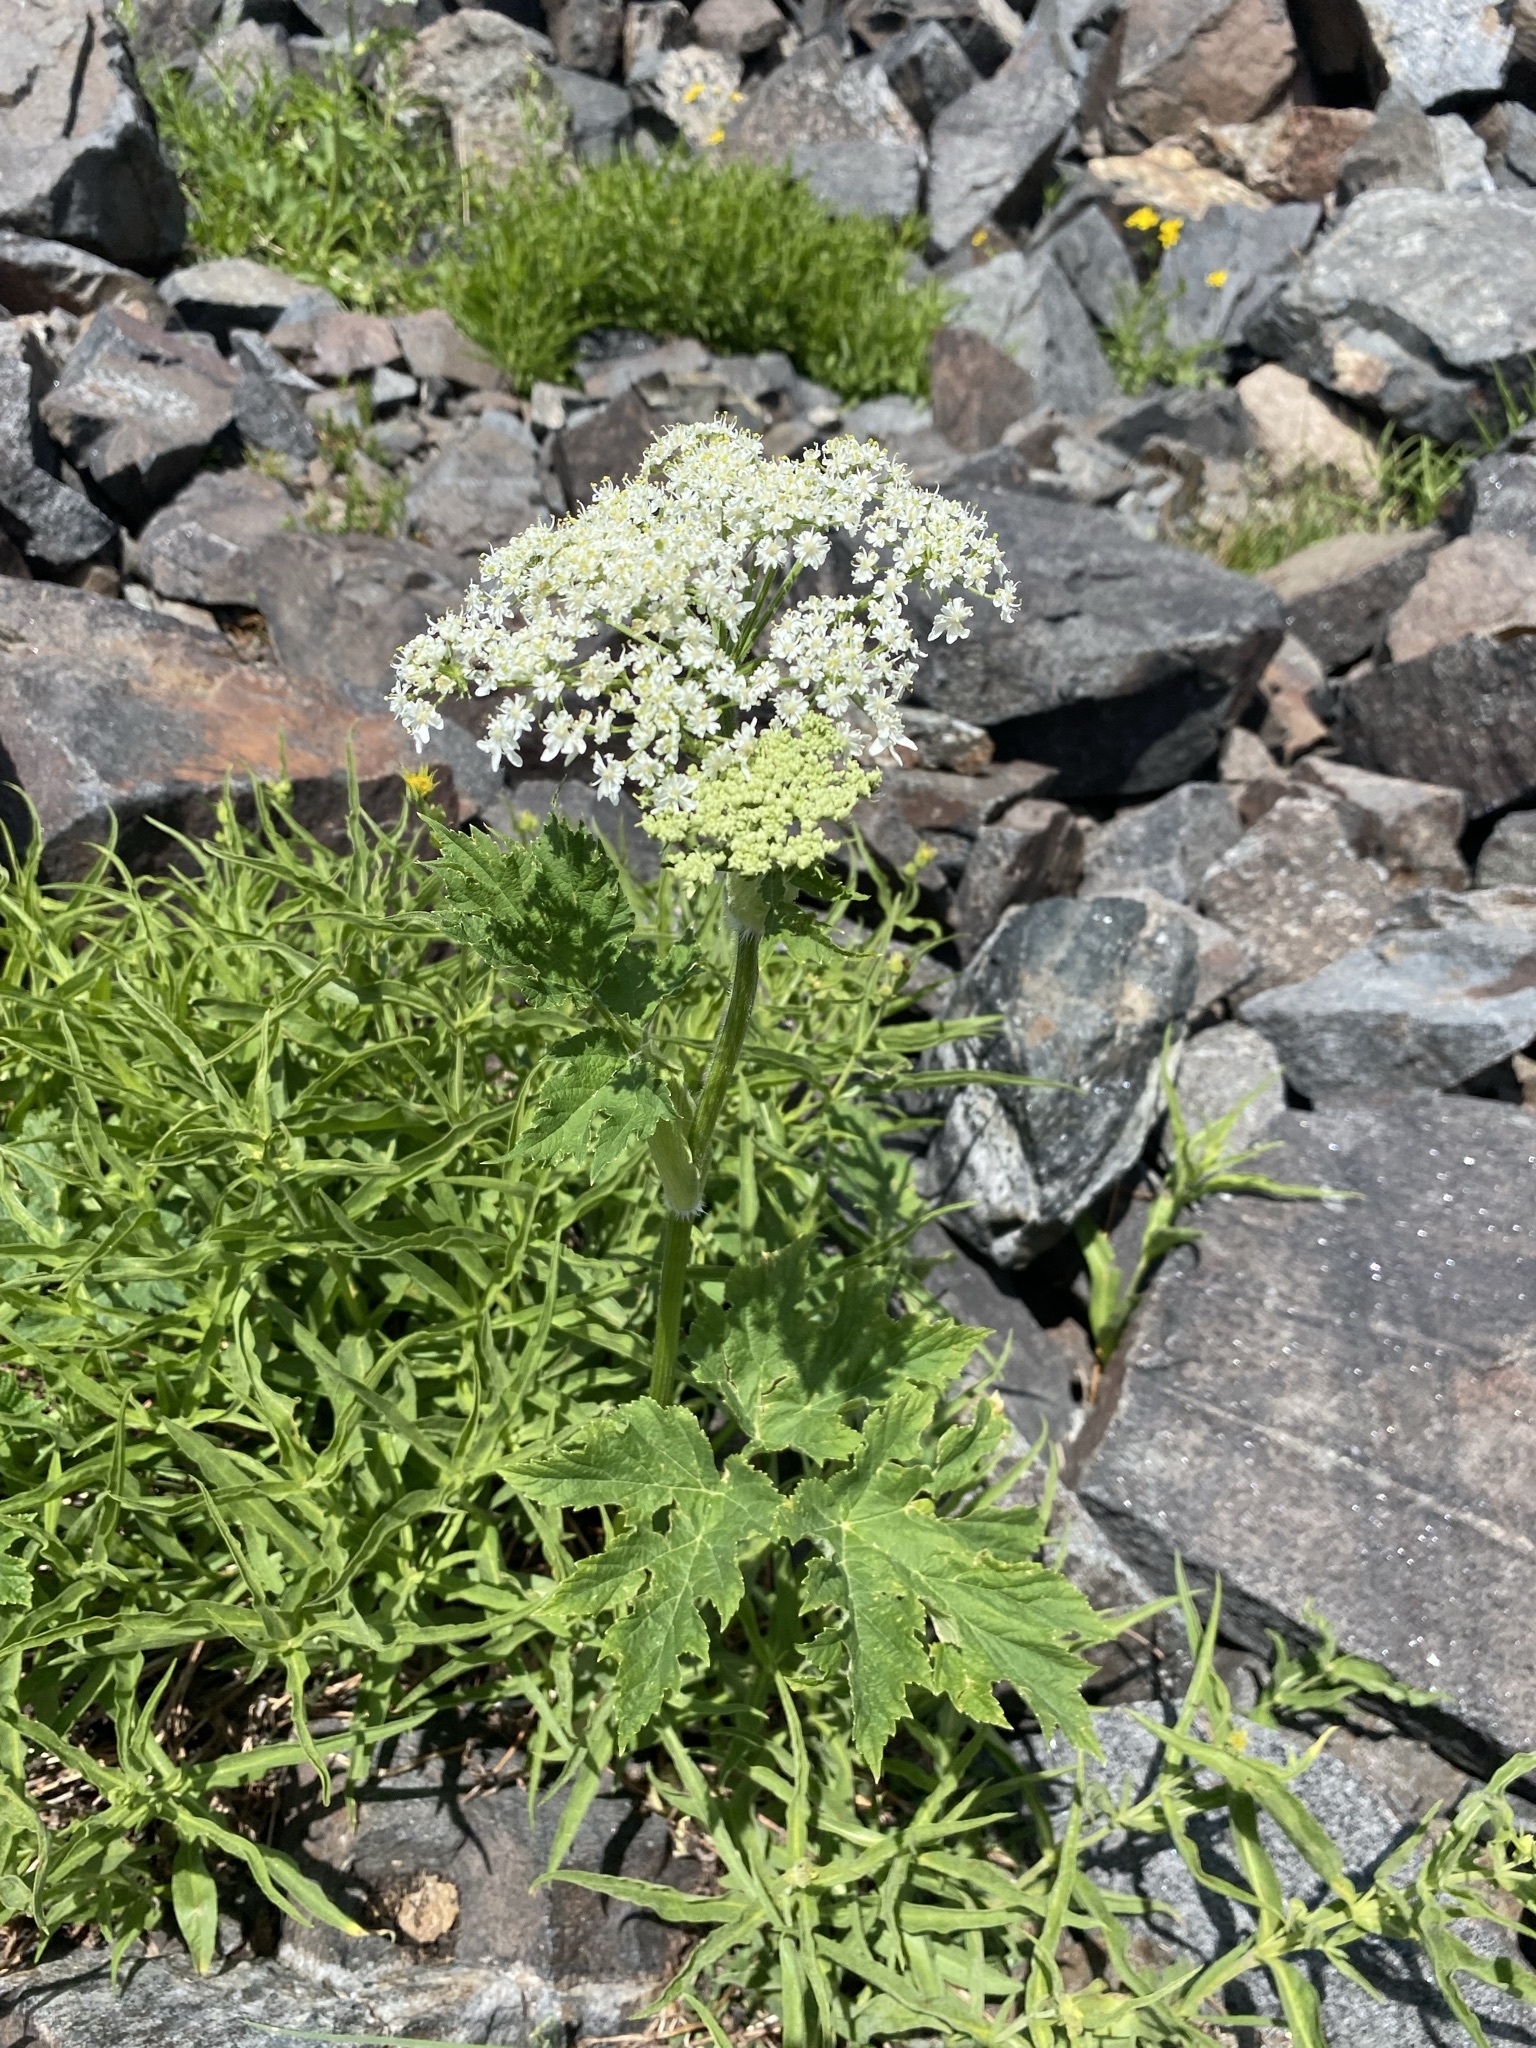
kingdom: Plantae
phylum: Tracheophyta
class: Magnoliopsida
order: Apiales
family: Apiaceae
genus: Heracleum
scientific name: Heracleum maximum
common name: American cow parsnip
